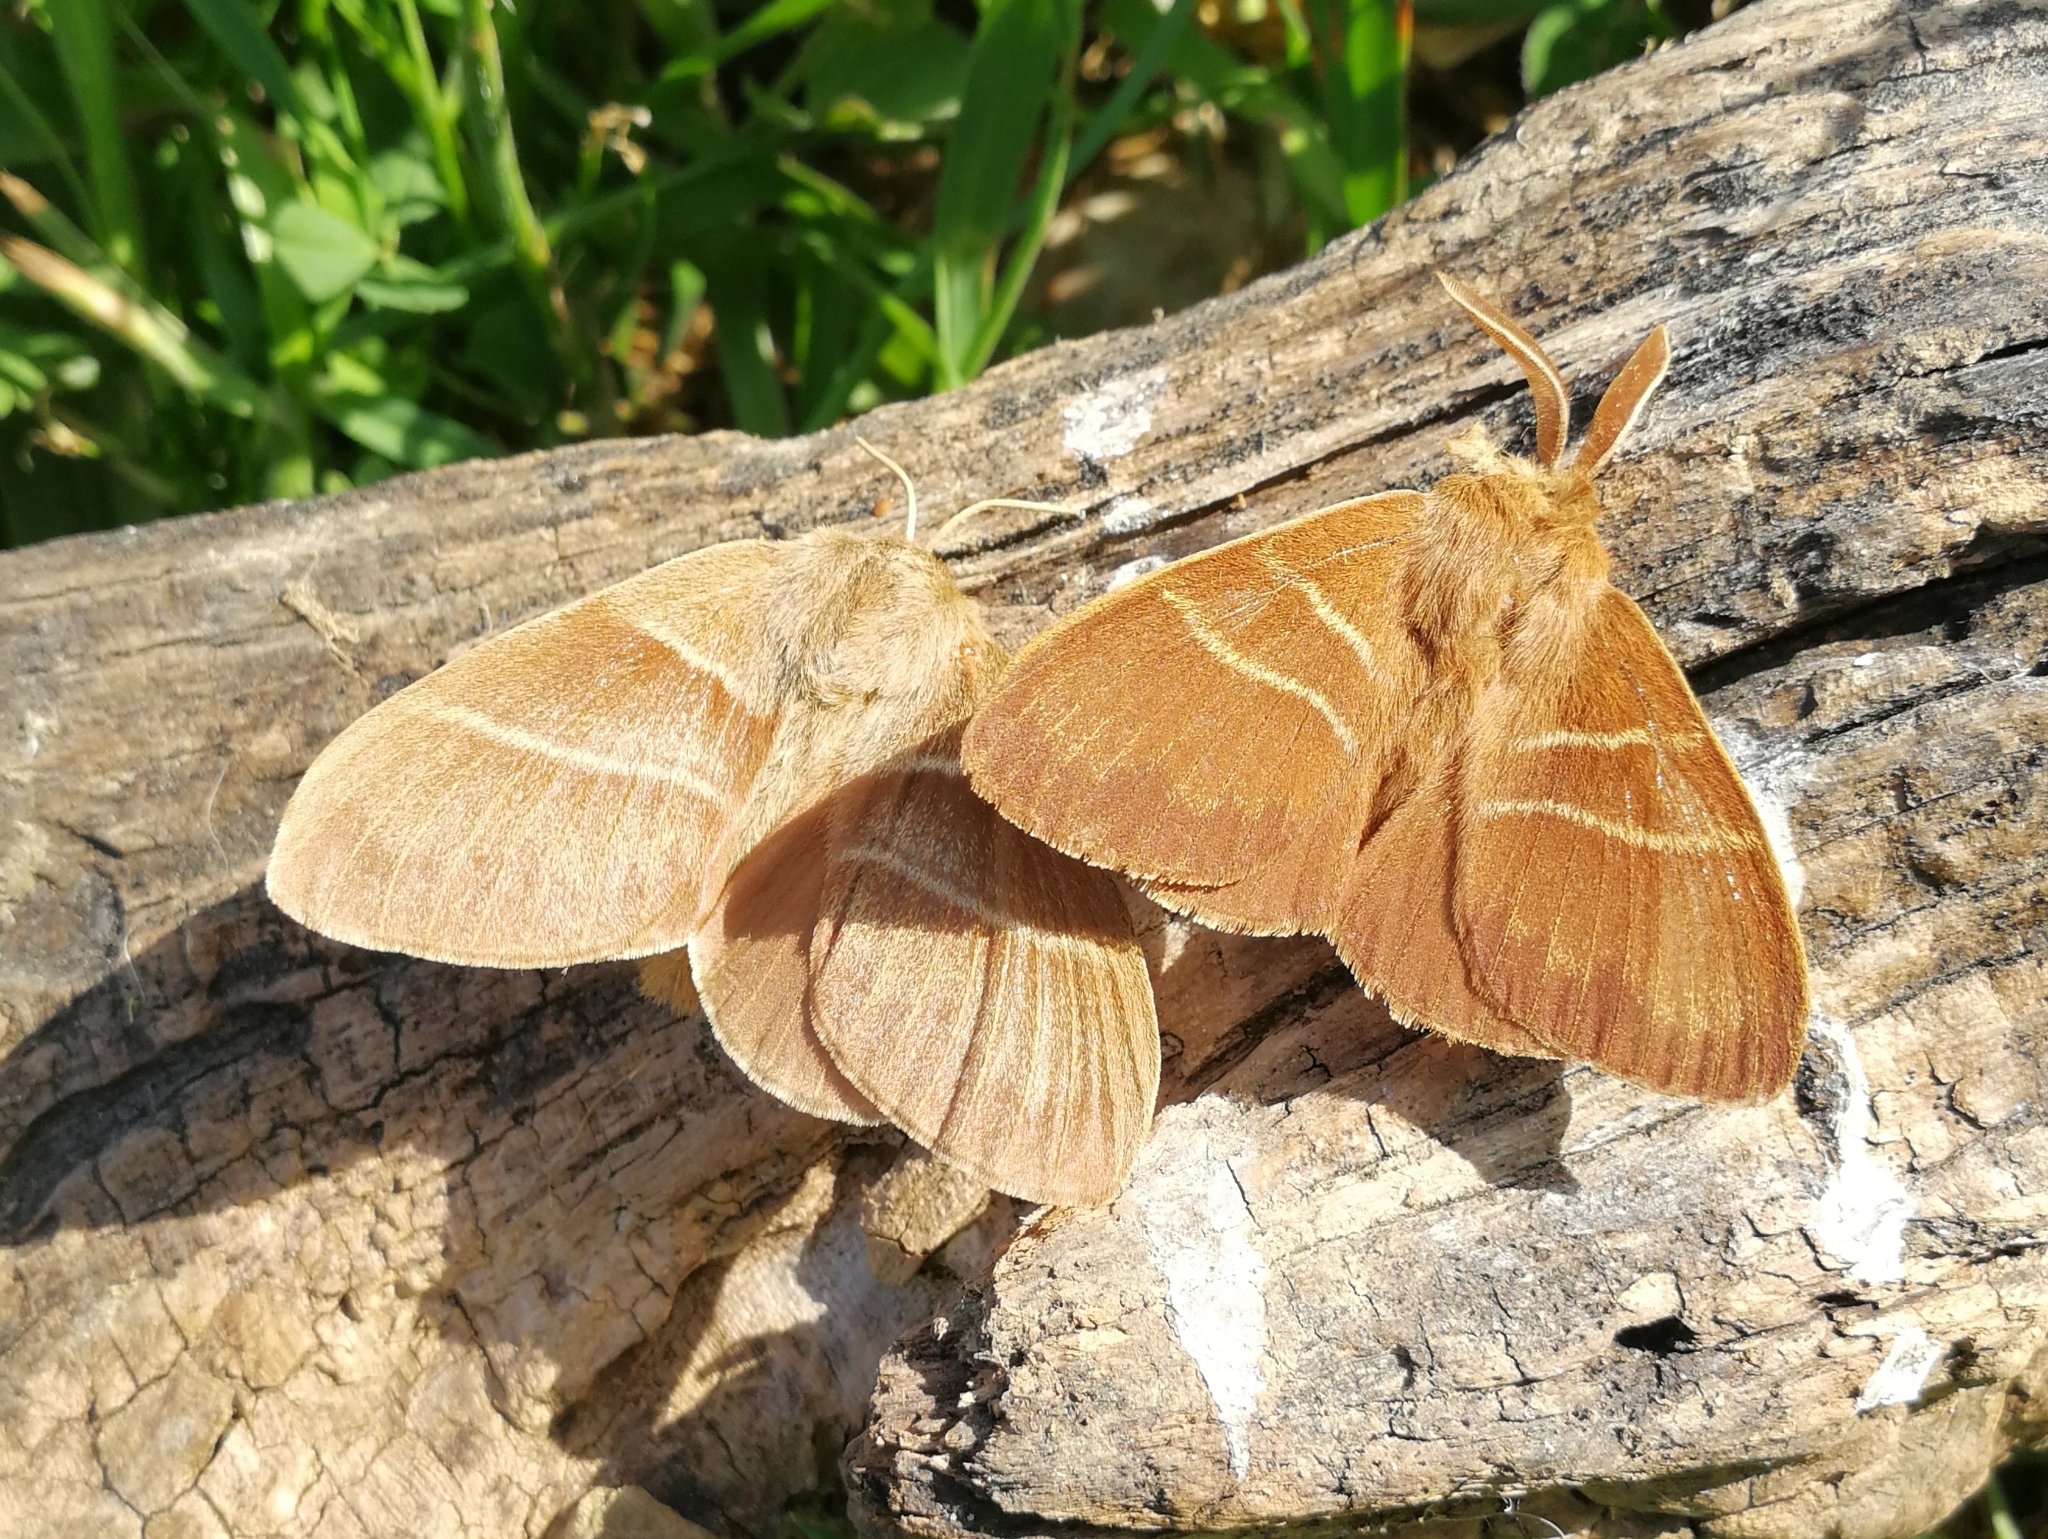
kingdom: Animalia
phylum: Arthropoda
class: Insecta
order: Lepidoptera
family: Lasiocampidae
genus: Macrothylacia
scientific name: Macrothylacia rubi
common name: Fox moth
